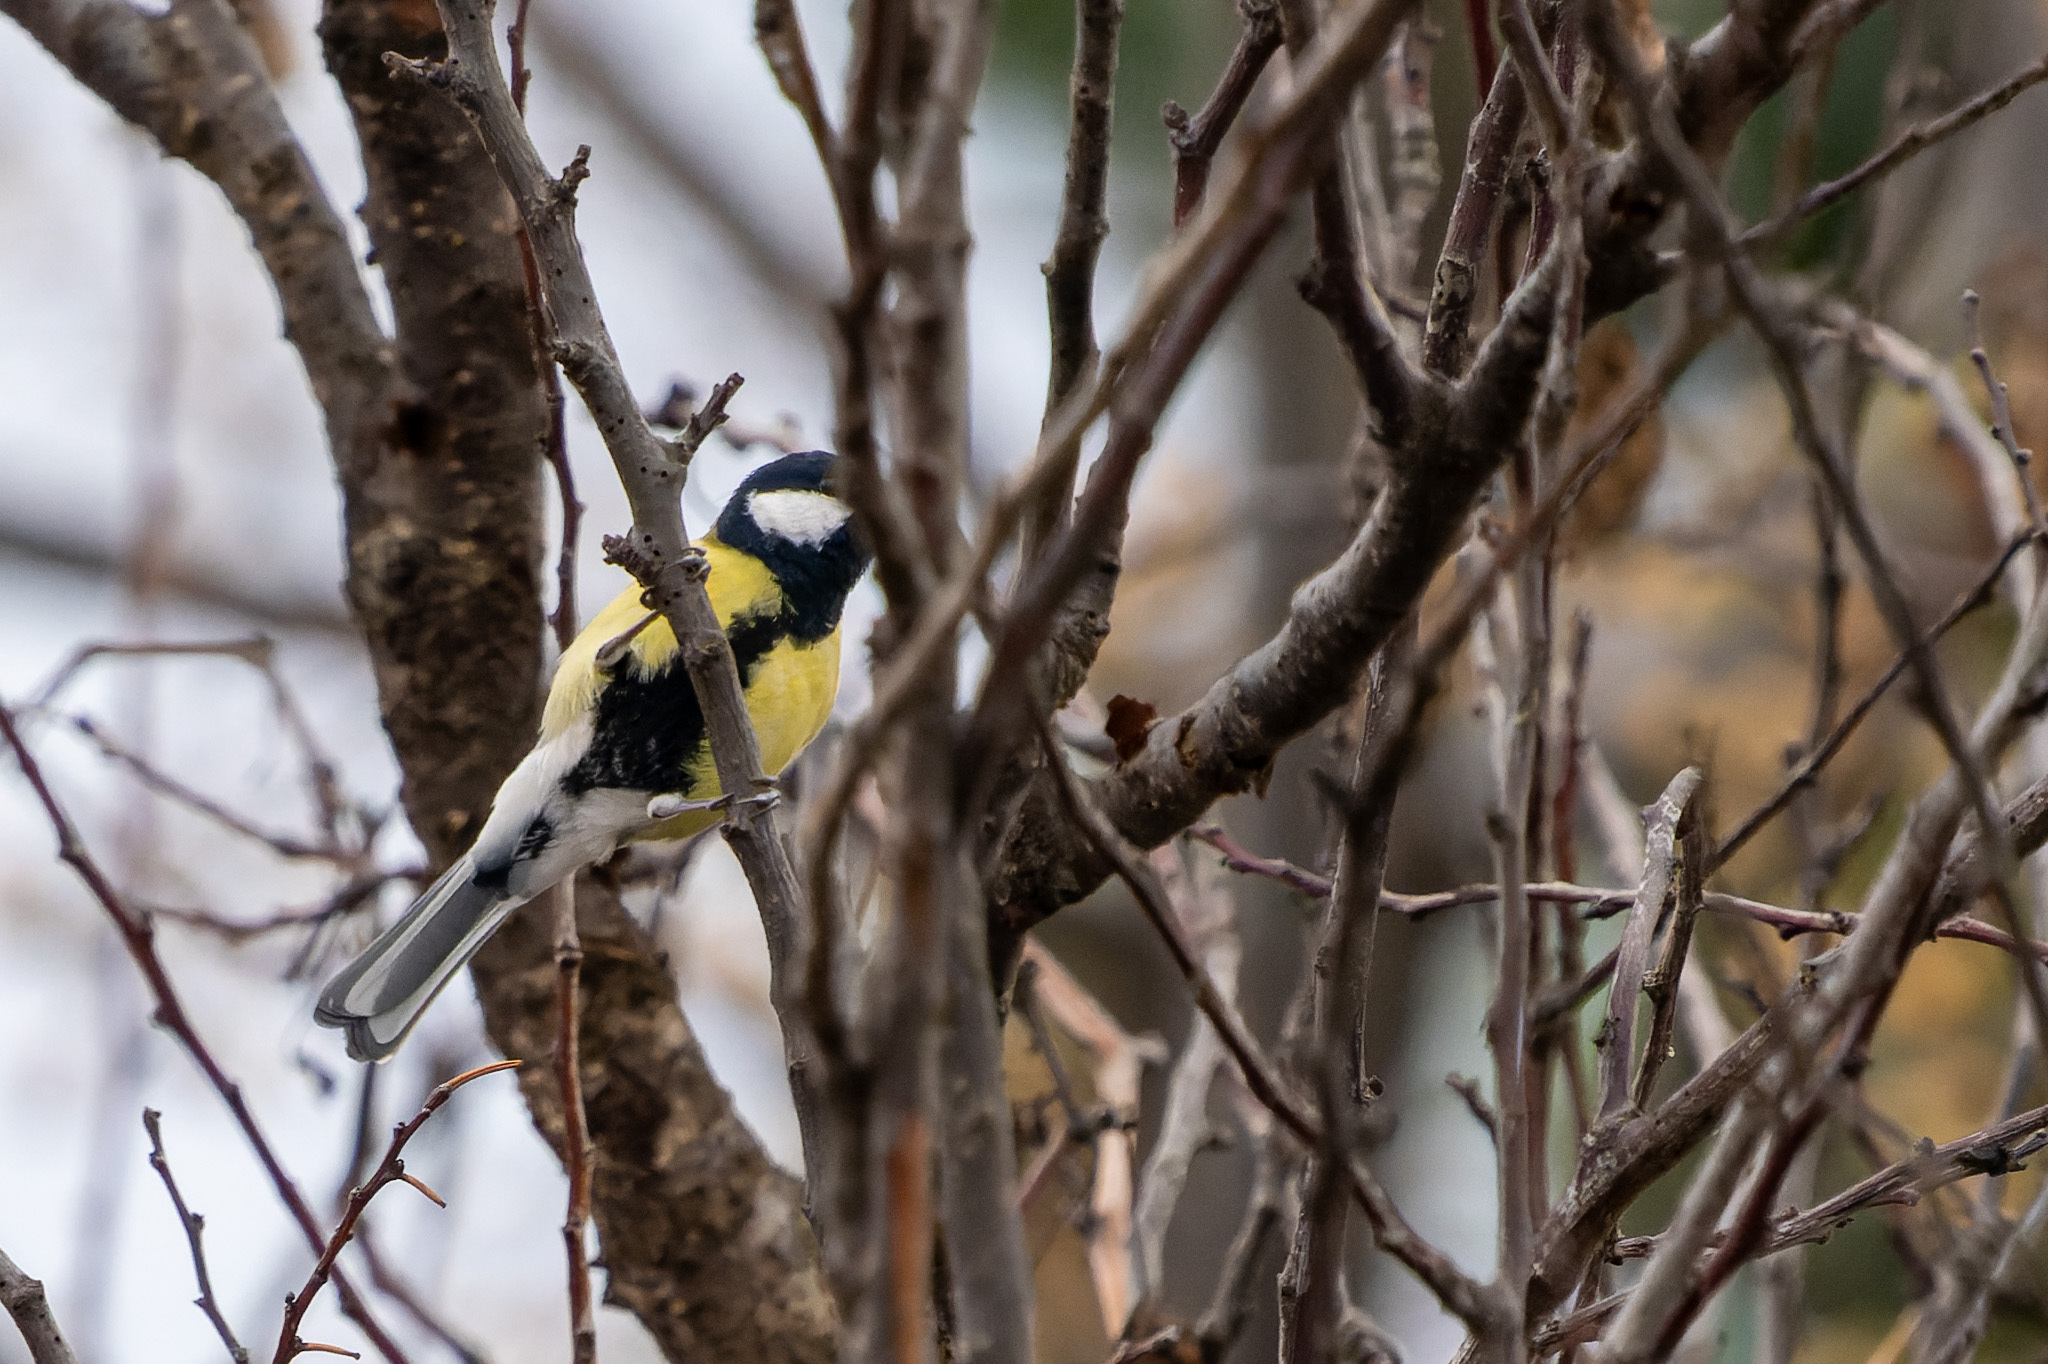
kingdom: Animalia
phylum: Chordata
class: Aves
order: Passeriformes
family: Paridae
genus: Parus
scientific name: Parus major
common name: Great tit
